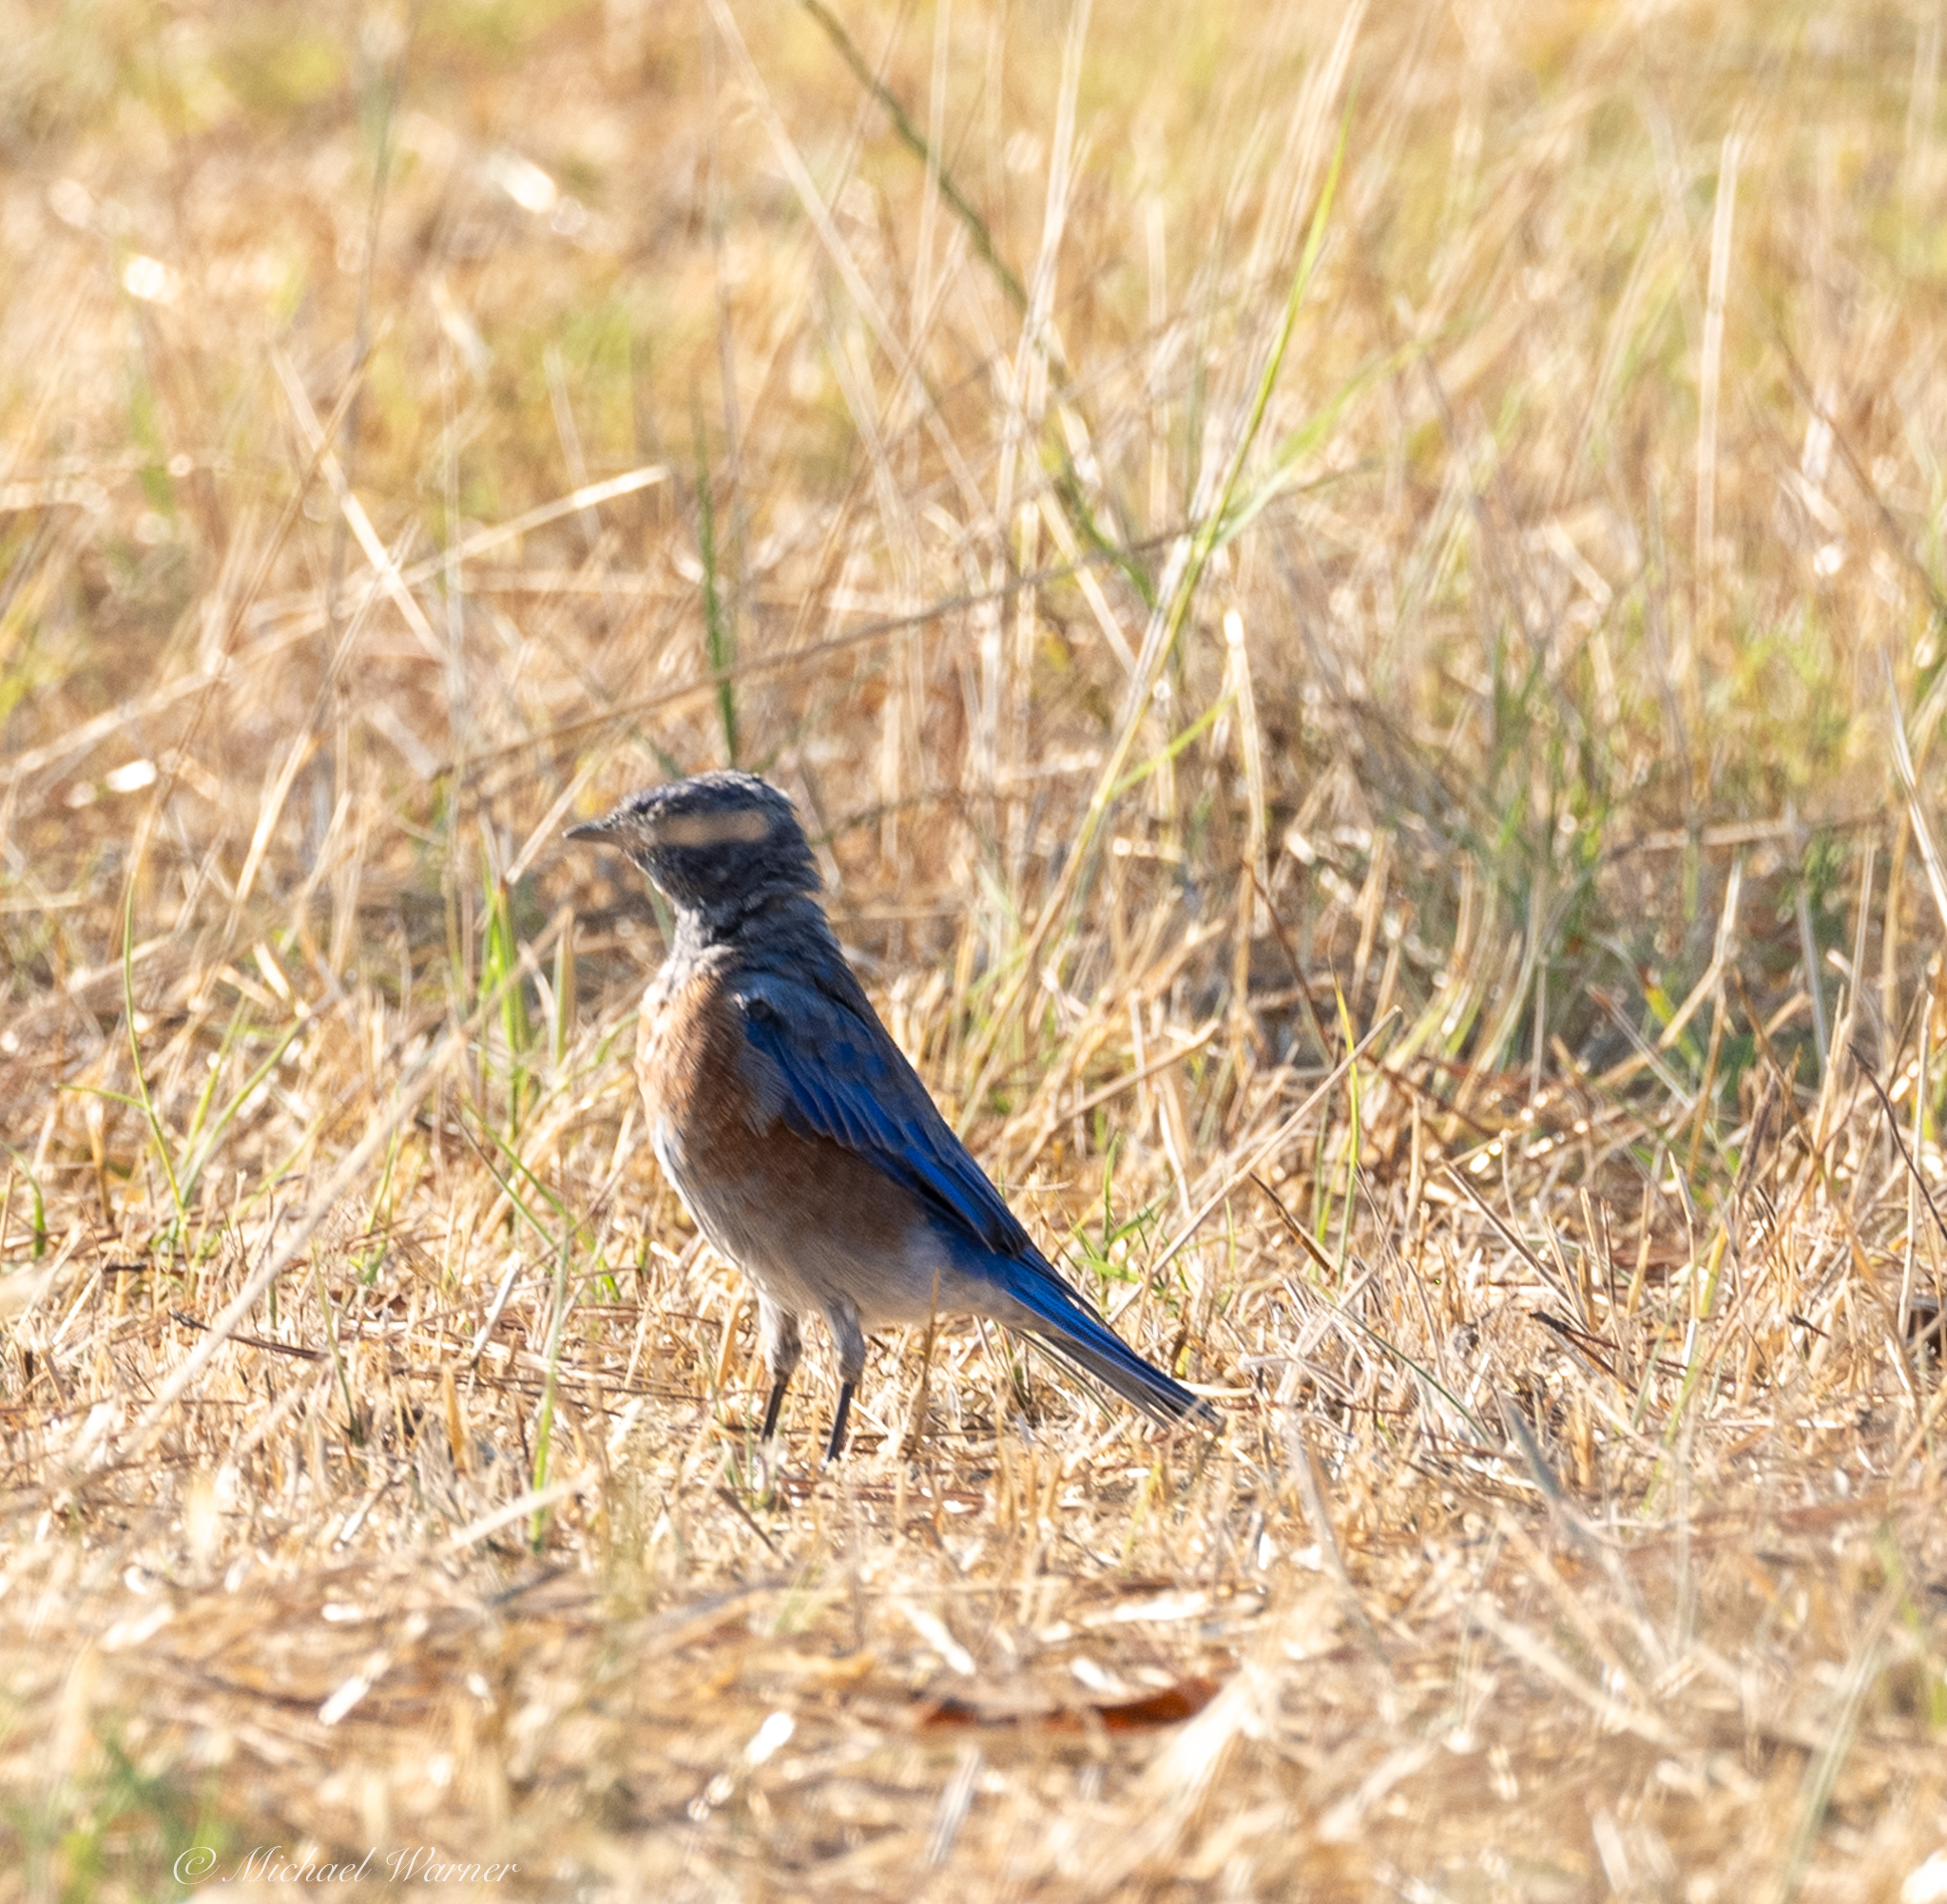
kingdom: Animalia
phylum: Chordata
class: Aves
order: Passeriformes
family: Turdidae
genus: Sialia
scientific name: Sialia mexicana
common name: Western bluebird
